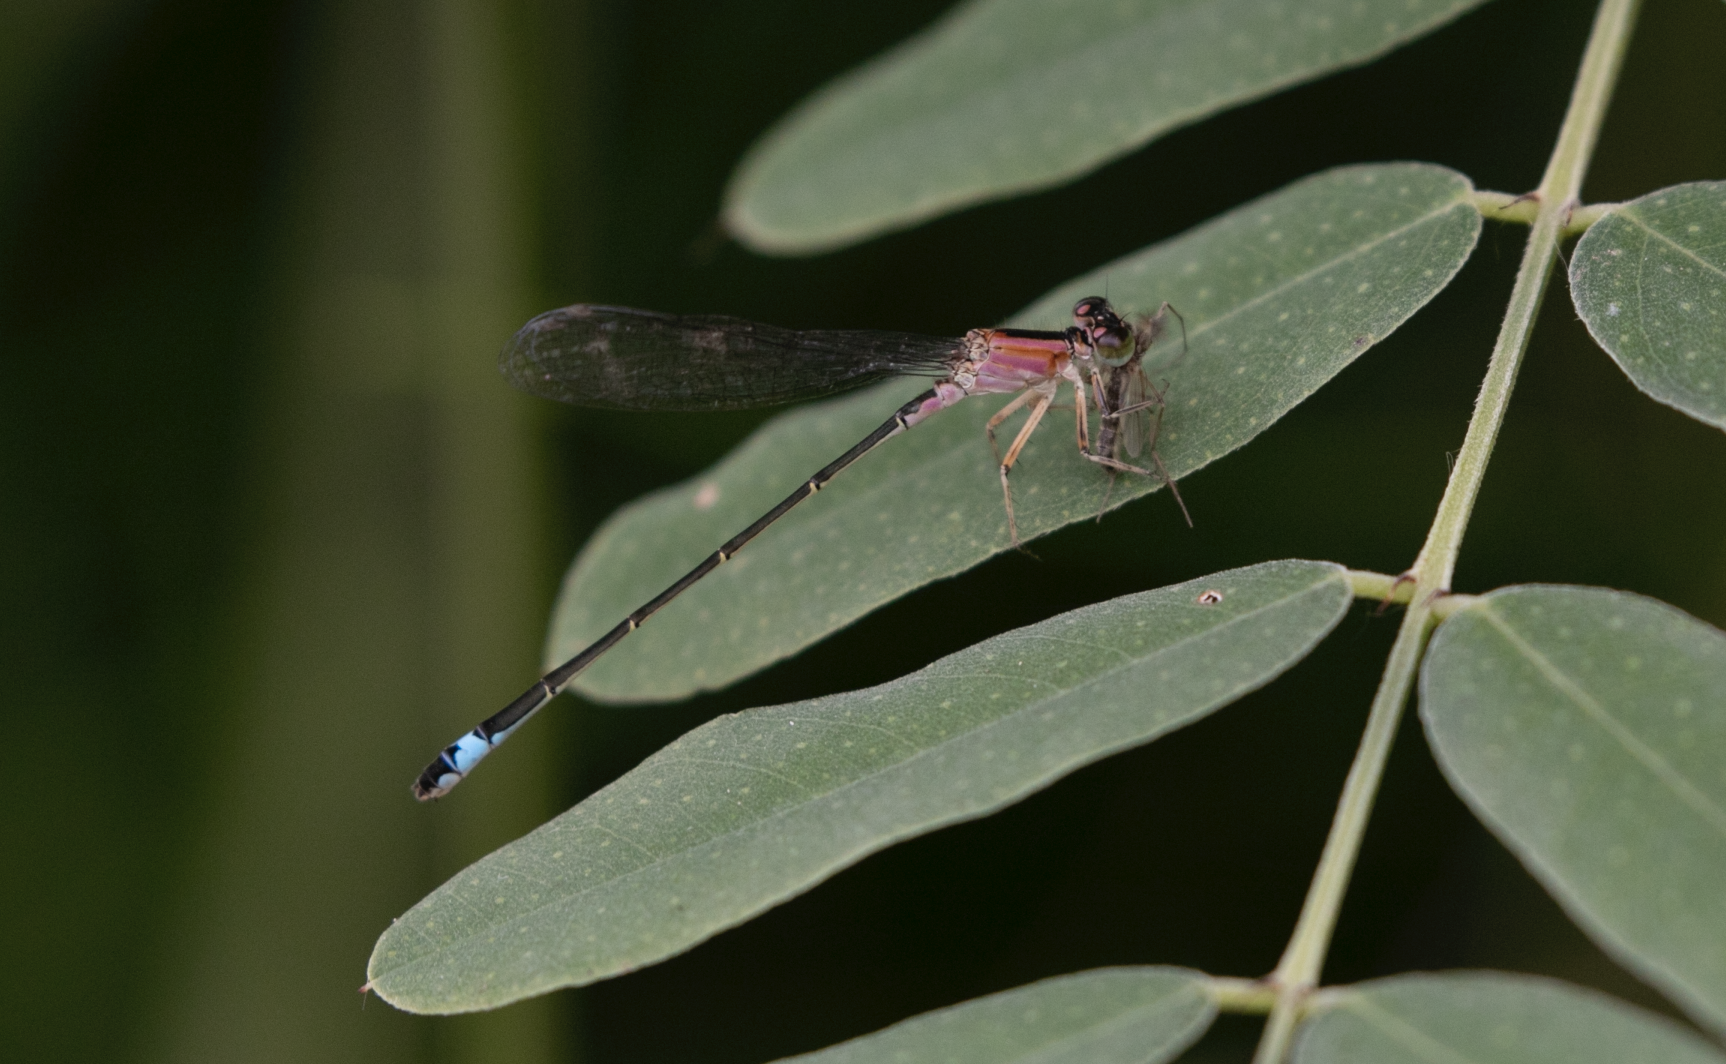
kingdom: Animalia
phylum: Arthropoda
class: Insecta
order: Odonata
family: Coenagrionidae
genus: Ischnura
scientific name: Ischnura elegans
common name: Blue-tailed damselfly
